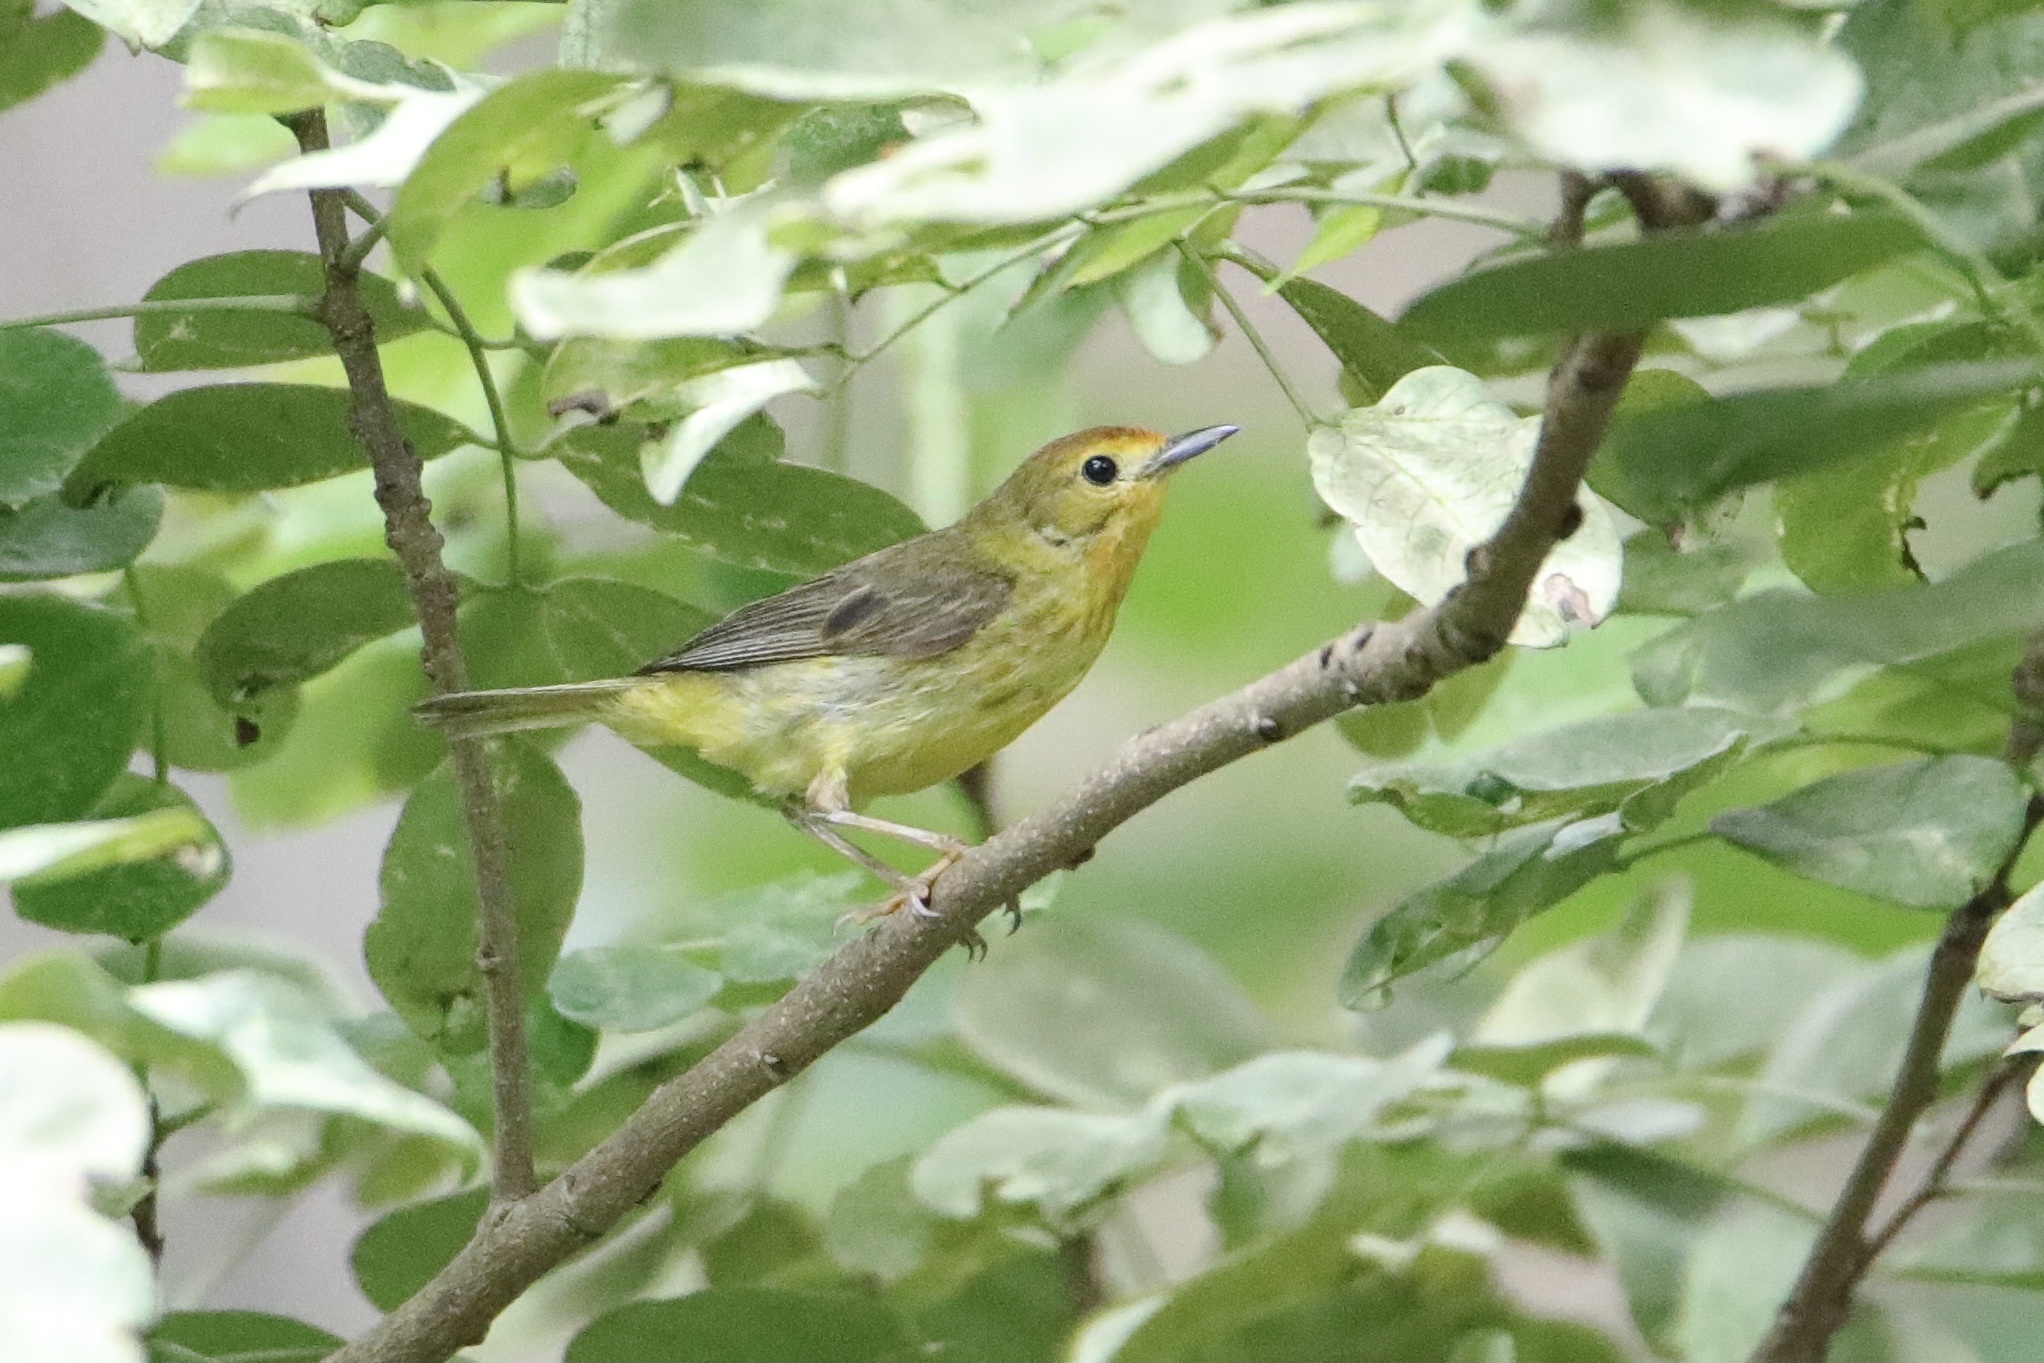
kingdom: Animalia
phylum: Chordata
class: Aves
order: Passeriformes
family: Parulidae
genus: Setophaga
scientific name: Setophaga petechia
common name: Yellow warbler
